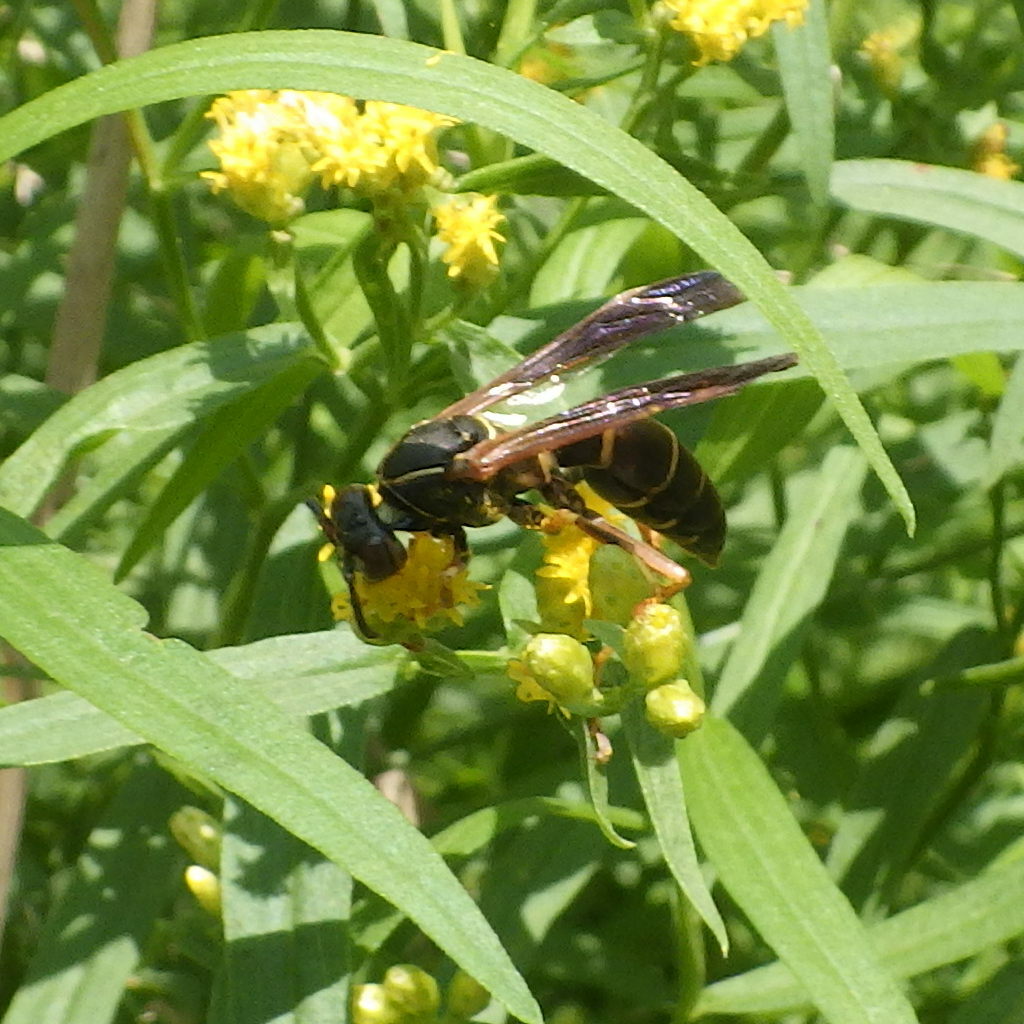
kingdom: Animalia
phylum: Arthropoda
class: Insecta
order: Hymenoptera
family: Eumenidae
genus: Polistes
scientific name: Polistes fuscatus
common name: Dark paper wasp
